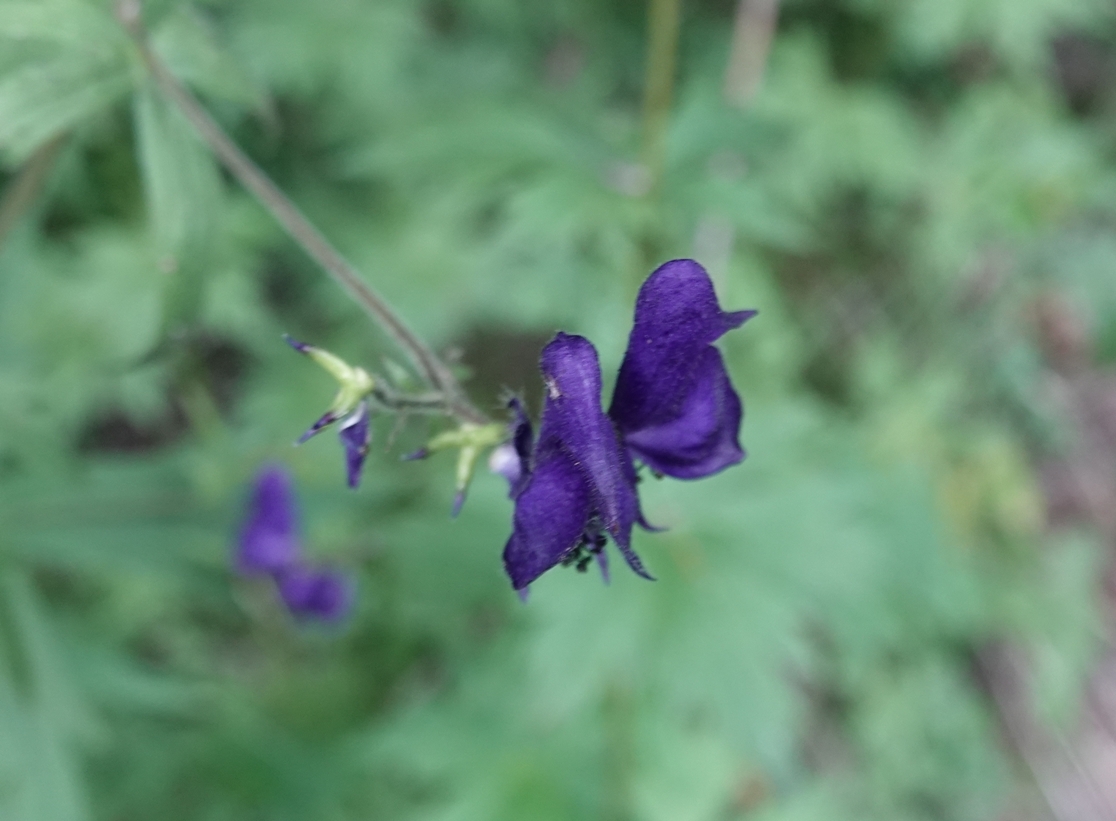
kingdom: Plantae
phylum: Tracheophyta
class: Magnoliopsida
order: Ranunculales
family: Ranunculaceae
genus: Aconitum
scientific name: Aconitum columbianum
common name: Columbia aconite
